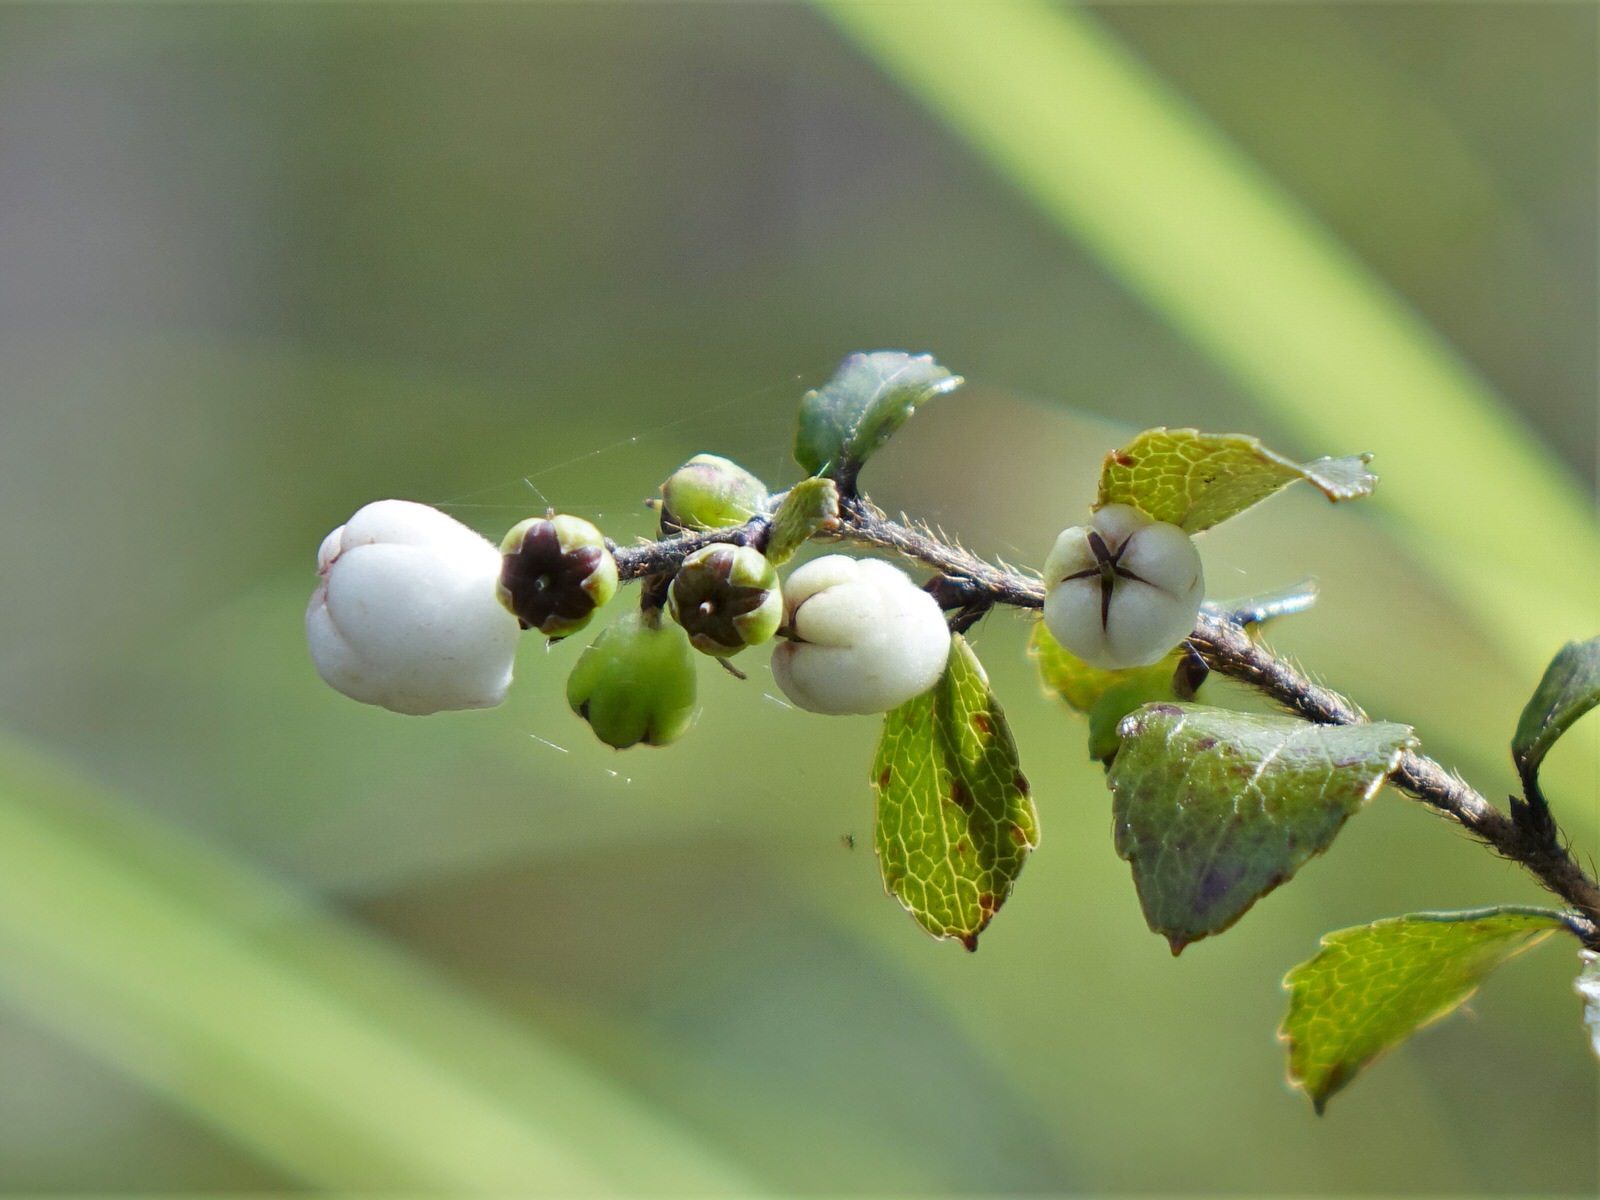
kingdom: Plantae
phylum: Tracheophyta
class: Magnoliopsida
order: Ericales
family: Ericaceae
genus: Gaultheria
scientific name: Gaultheria antipoda
